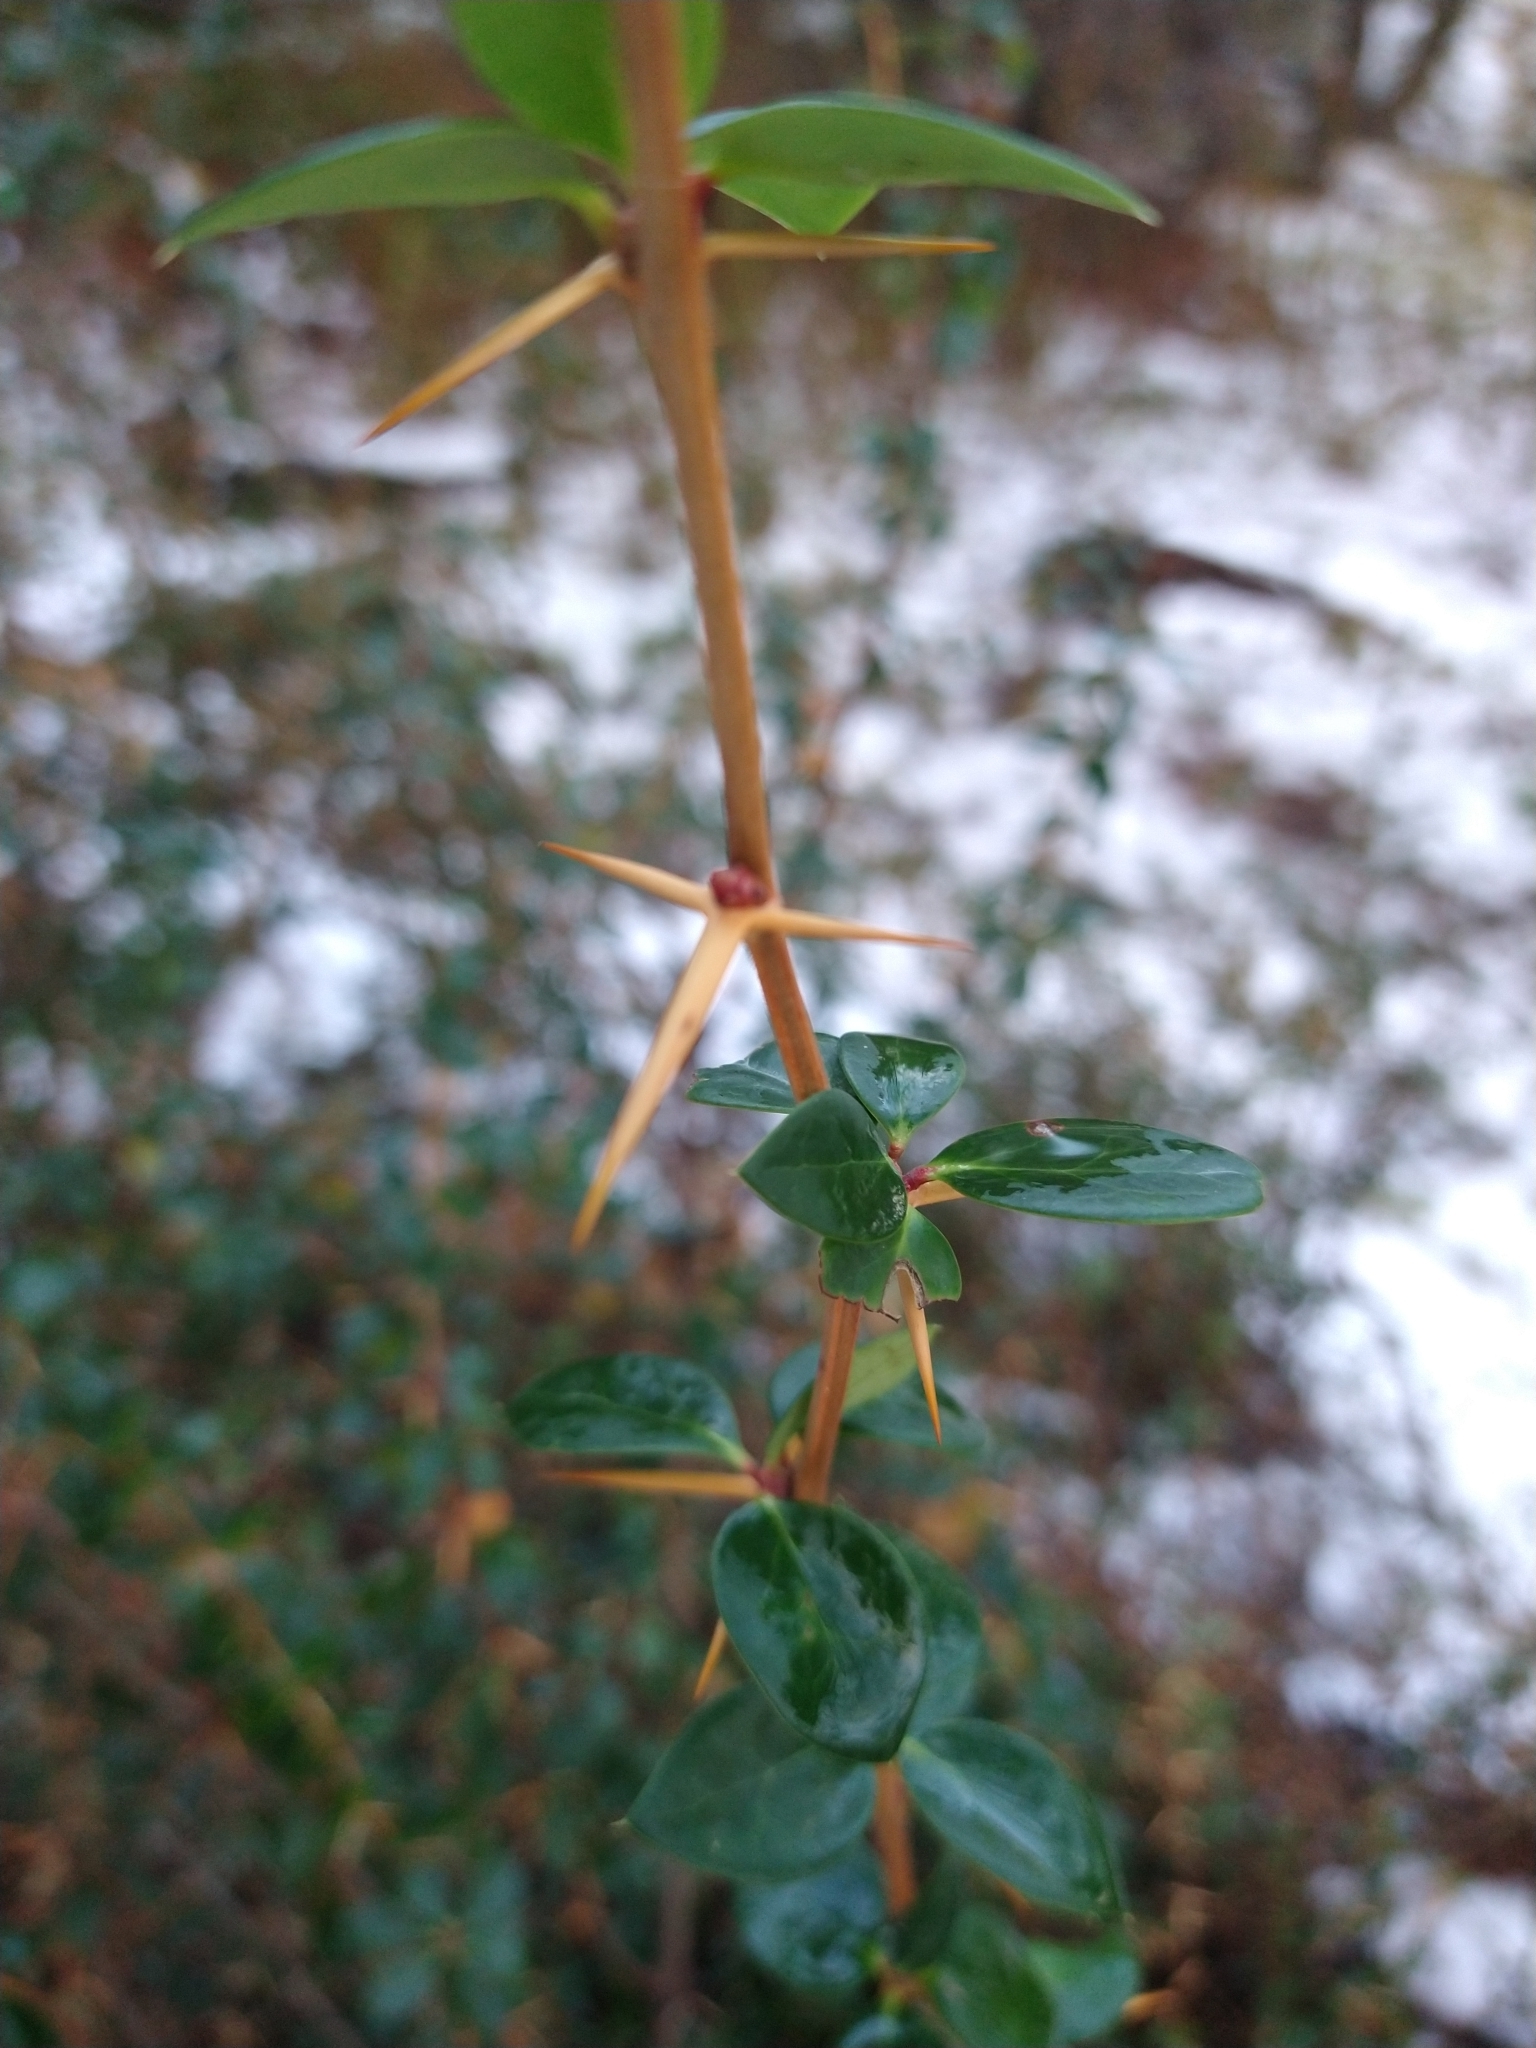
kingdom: Plantae
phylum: Tracheophyta
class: Magnoliopsida
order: Ranunculales
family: Berberidaceae
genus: Berberis
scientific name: Berberis microphylla
